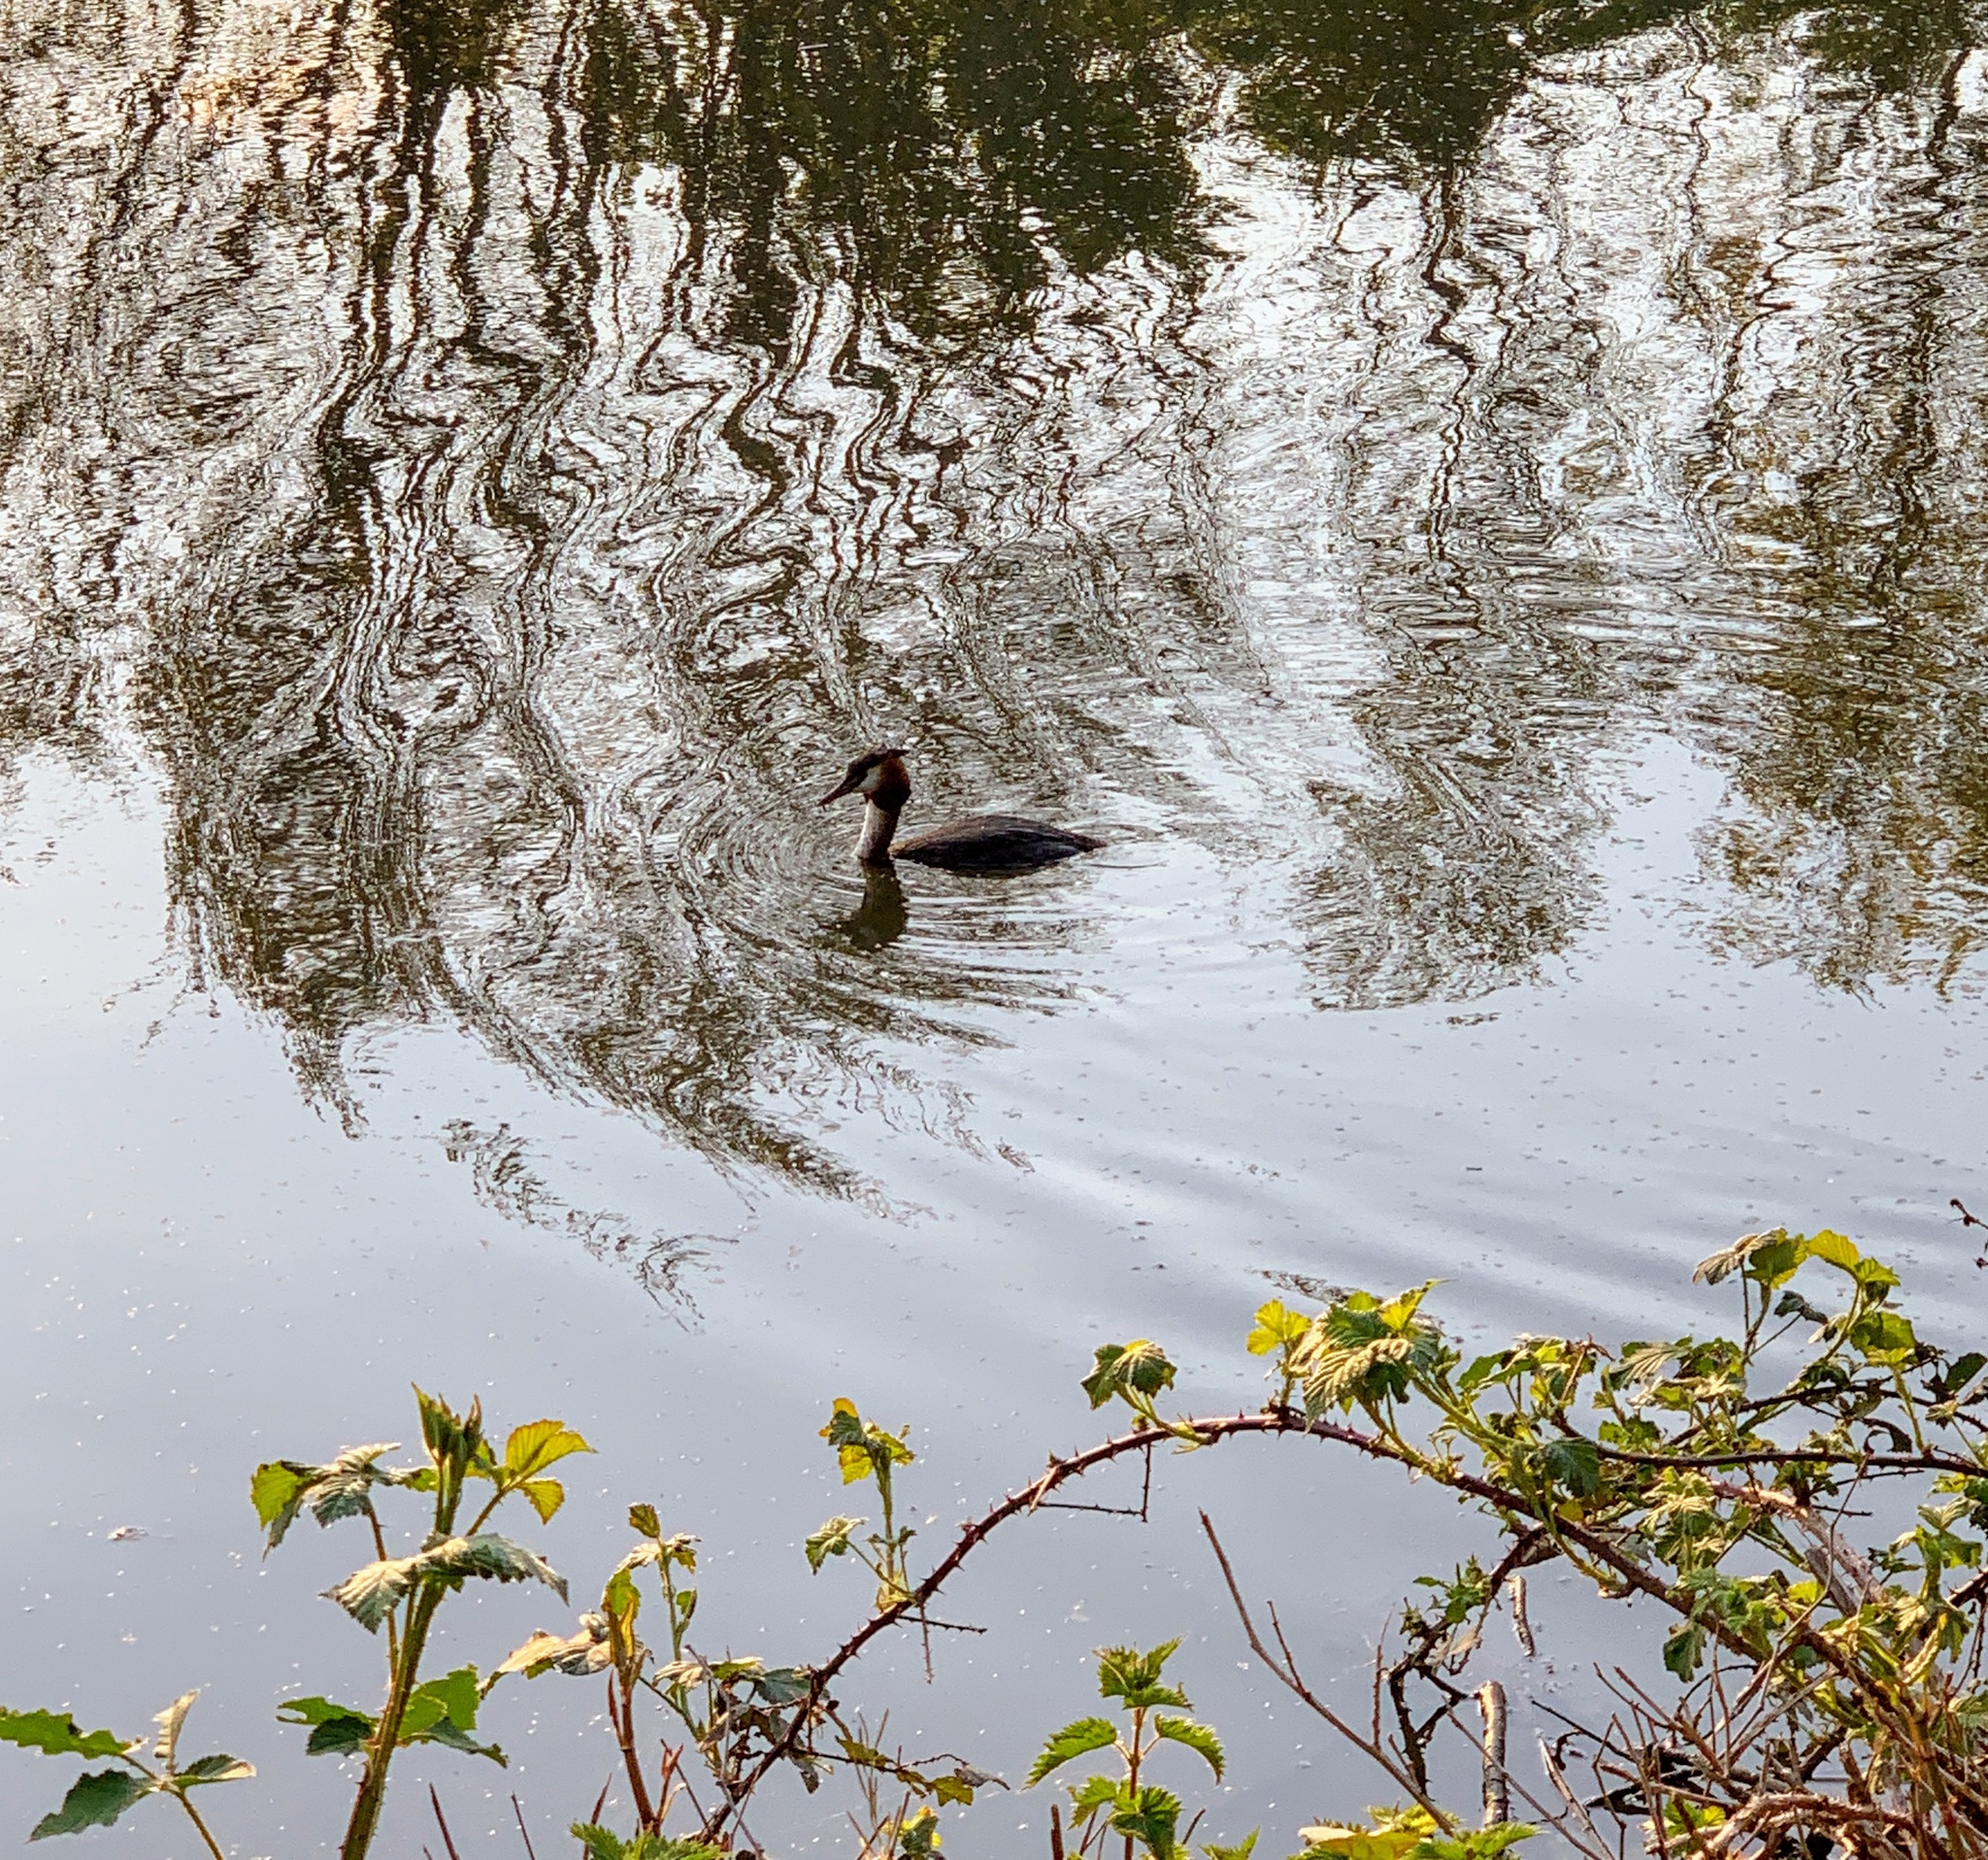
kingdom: Animalia
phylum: Chordata
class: Aves
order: Podicipediformes
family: Podicipedidae
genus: Podiceps
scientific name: Podiceps cristatus
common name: Great crested grebe
